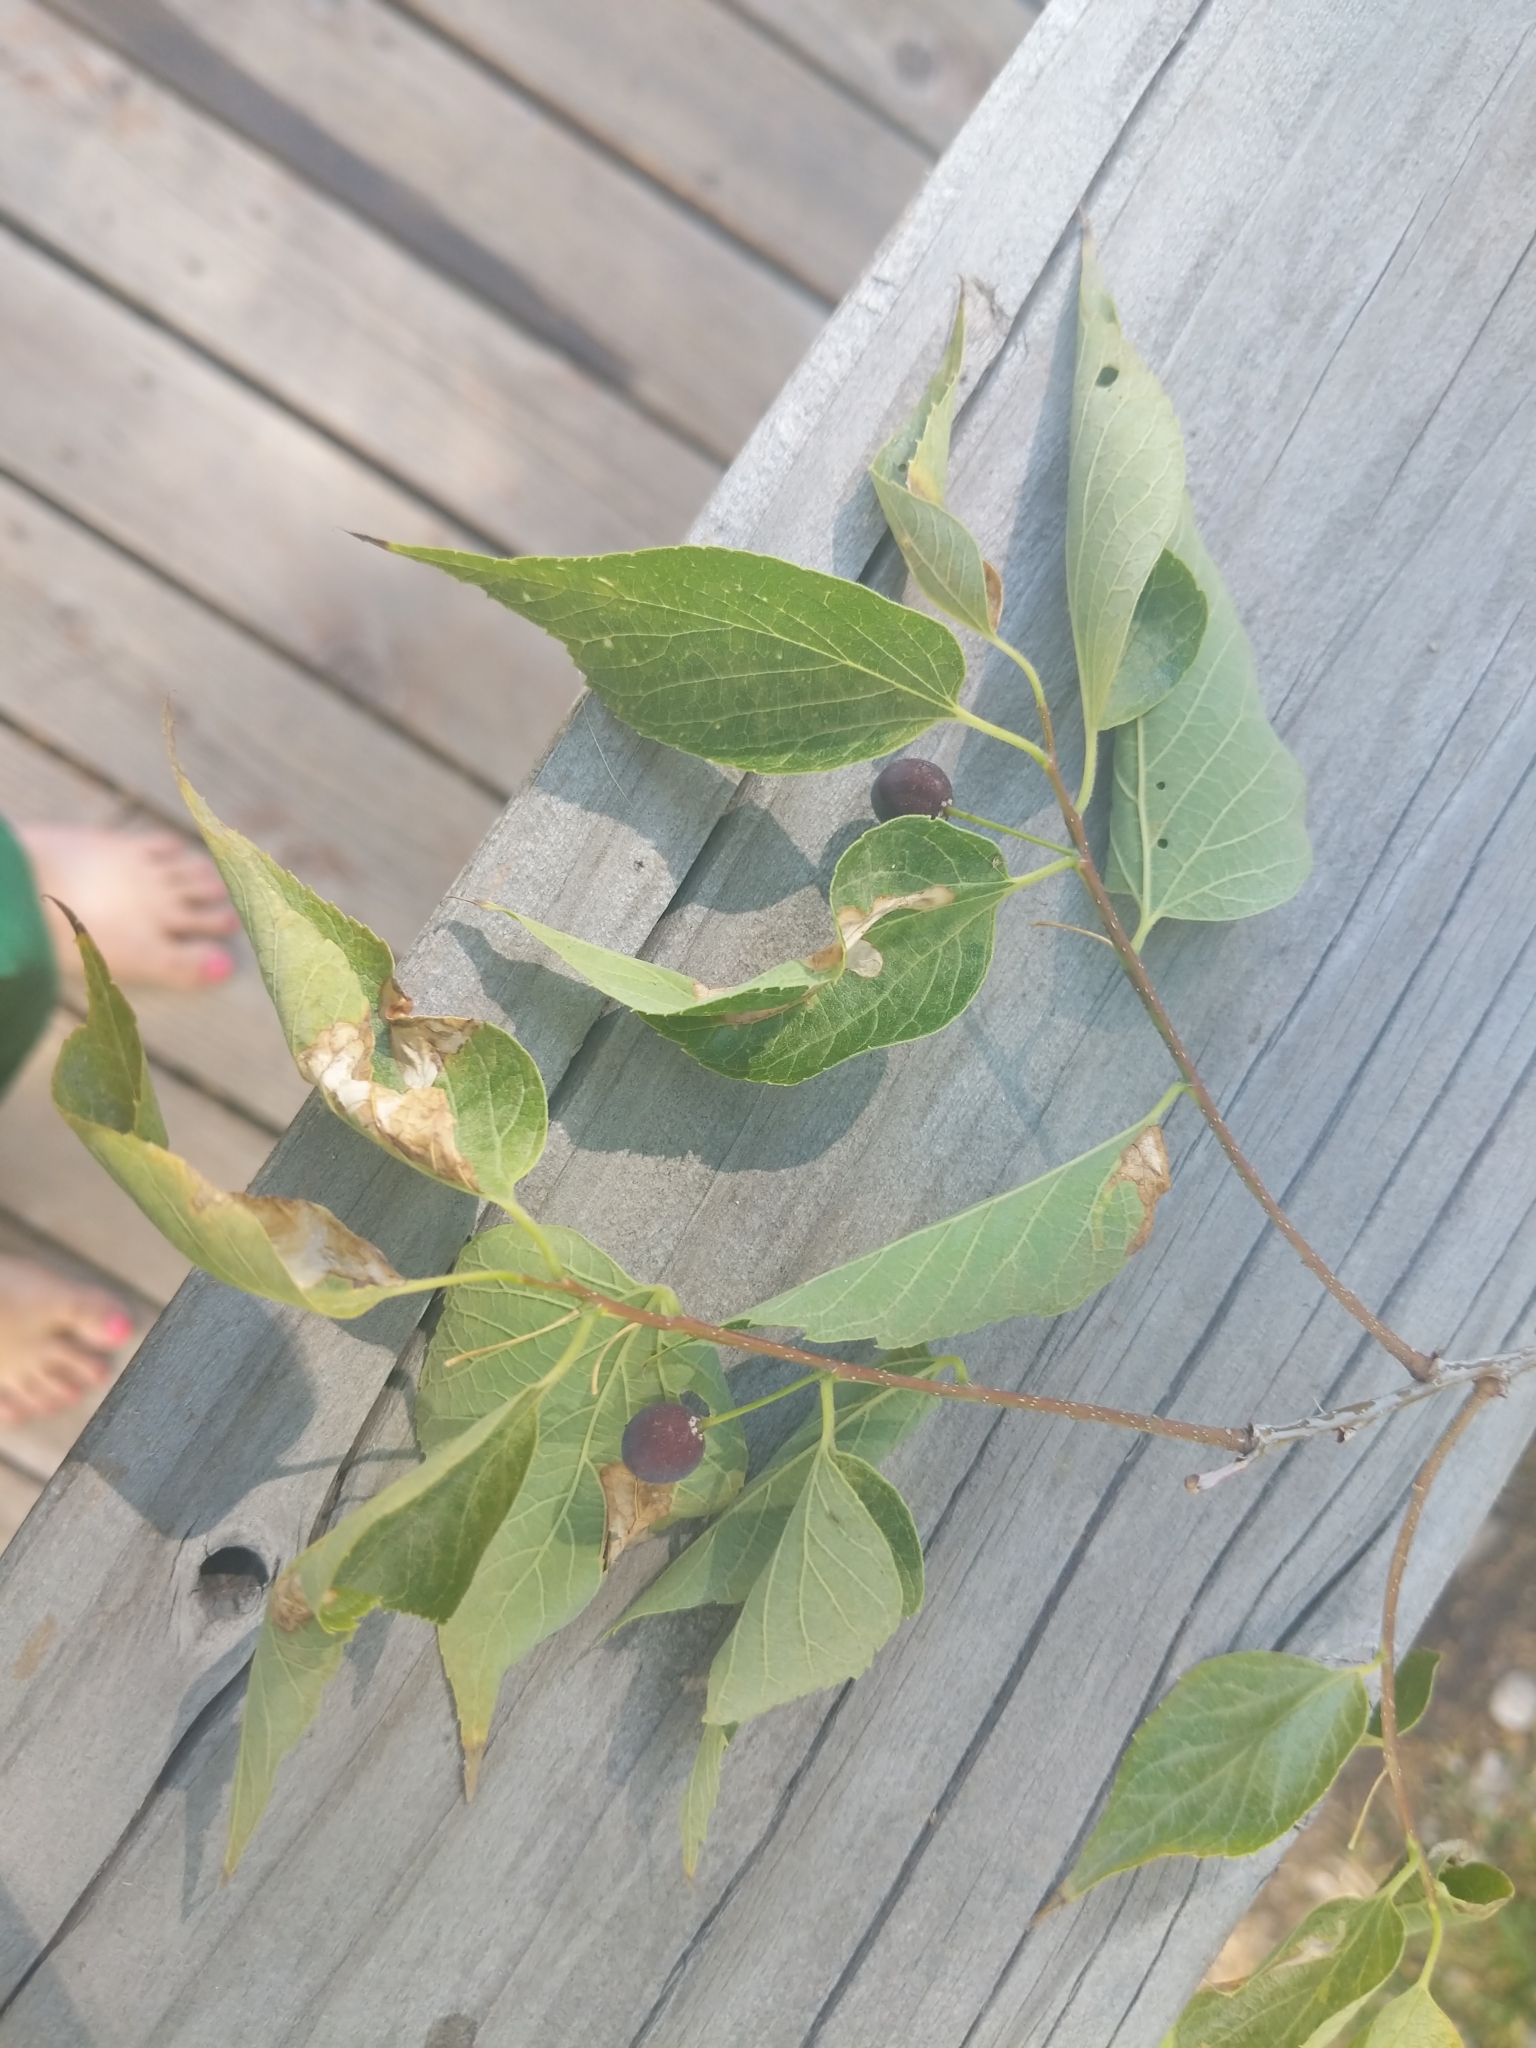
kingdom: Plantae
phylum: Tracheophyta
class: Magnoliopsida
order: Rosales
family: Cannabaceae
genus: Celtis
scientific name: Celtis occidentalis
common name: Common hackberry
